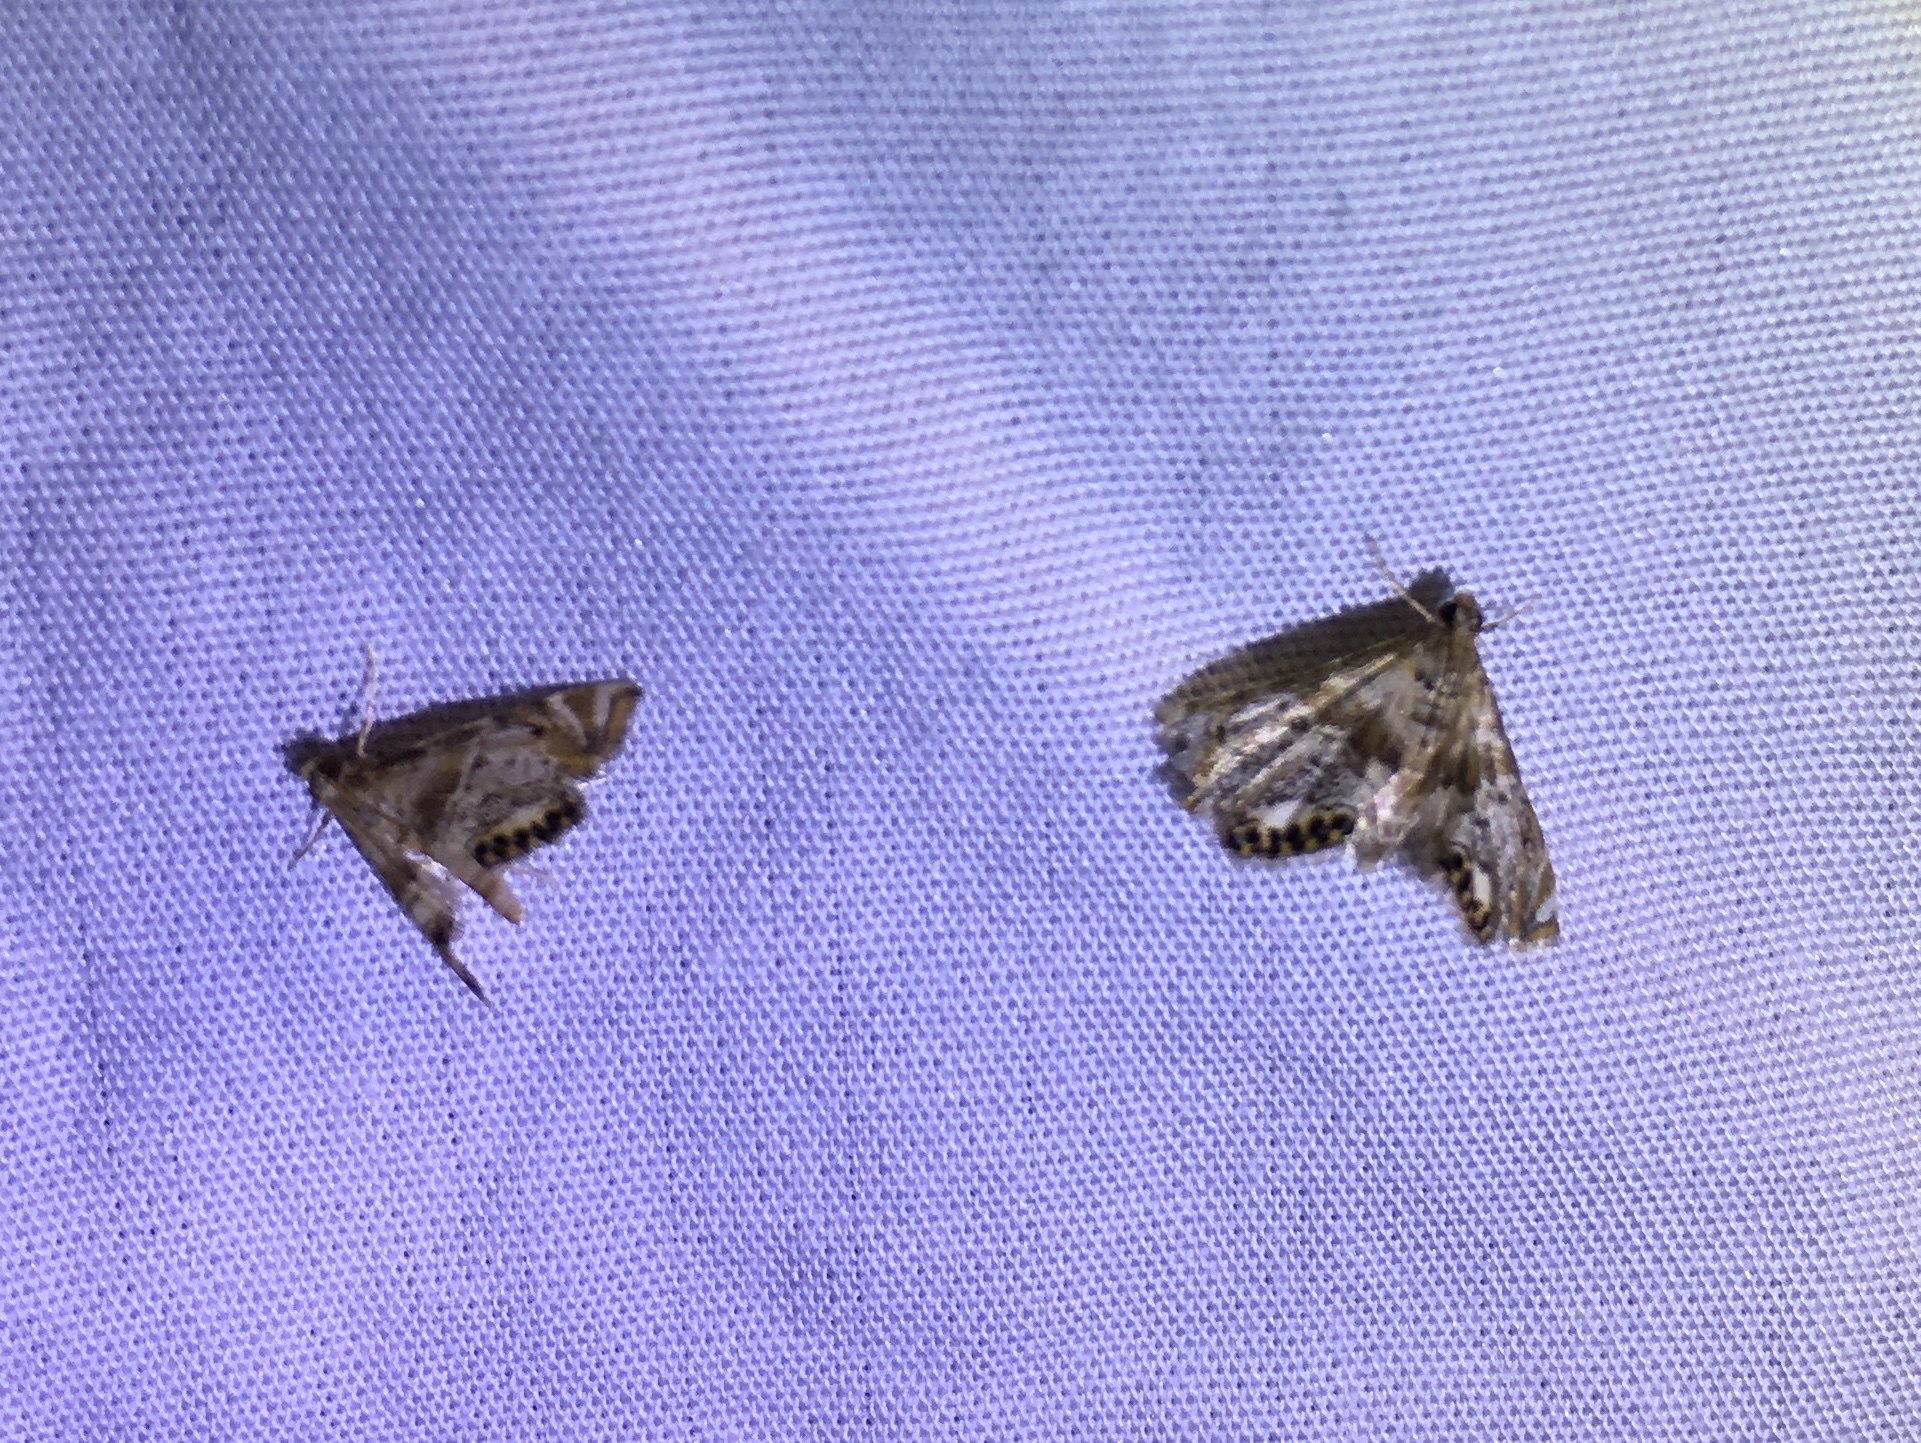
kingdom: Animalia
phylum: Arthropoda
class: Insecta
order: Lepidoptera
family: Crambidae
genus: Petrophila
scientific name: Petrophila fulicalis
